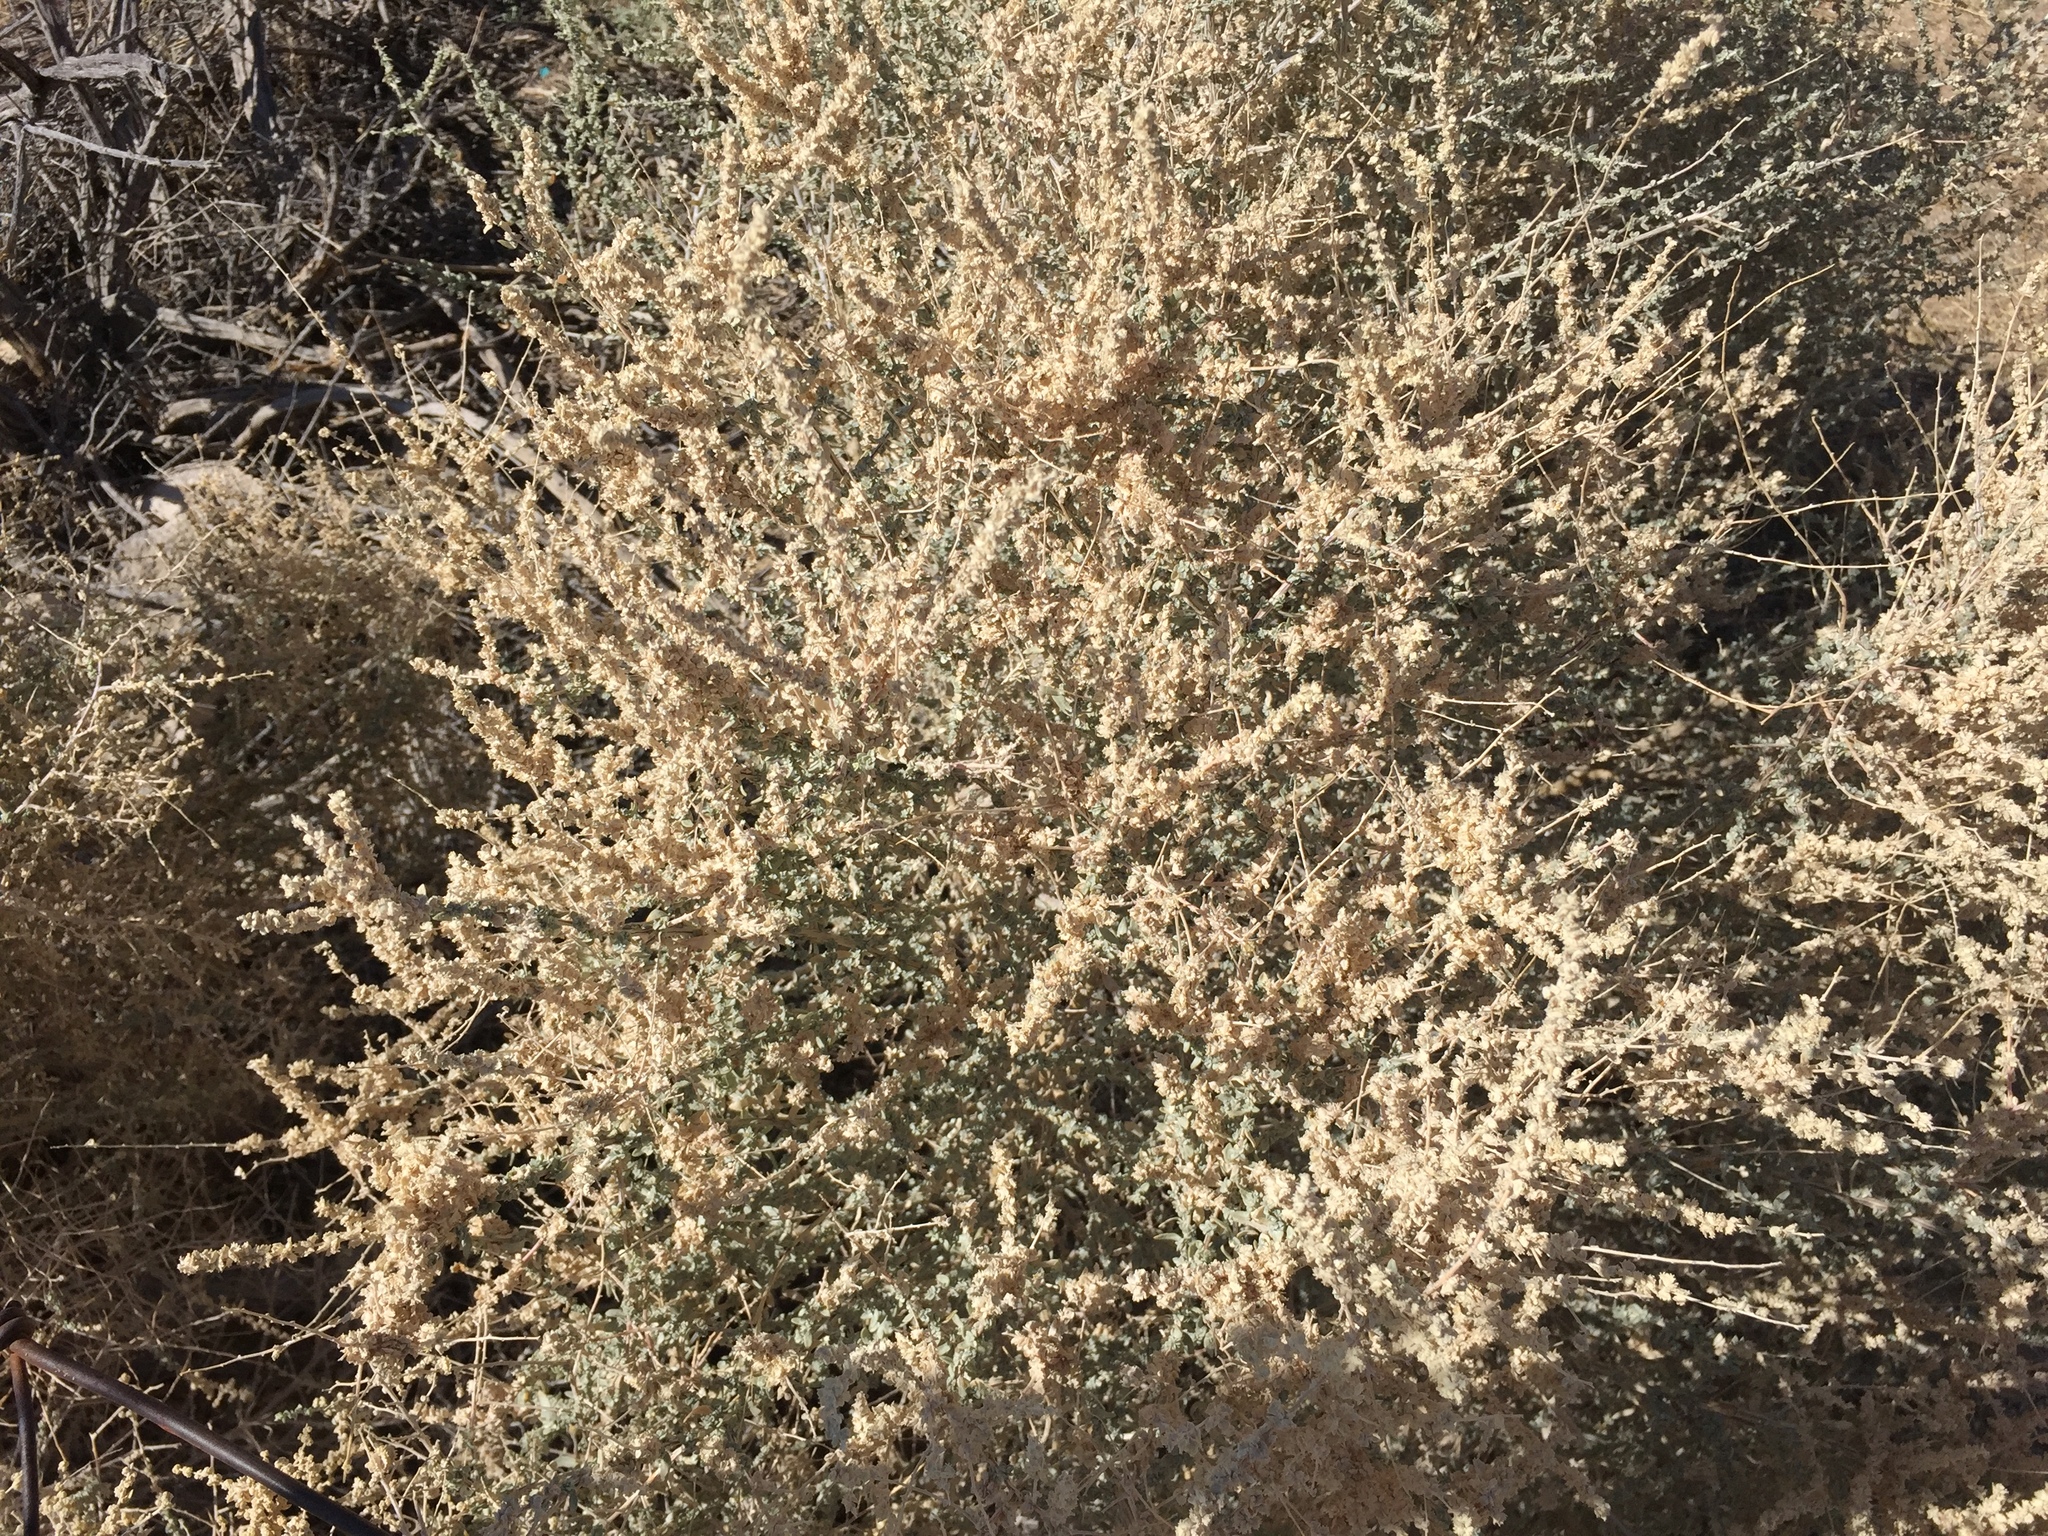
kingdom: Plantae
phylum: Tracheophyta
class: Magnoliopsida
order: Caryophyllales
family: Amaranthaceae
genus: Atriplex
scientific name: Atriplex canescens
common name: Four-wing saltbush
